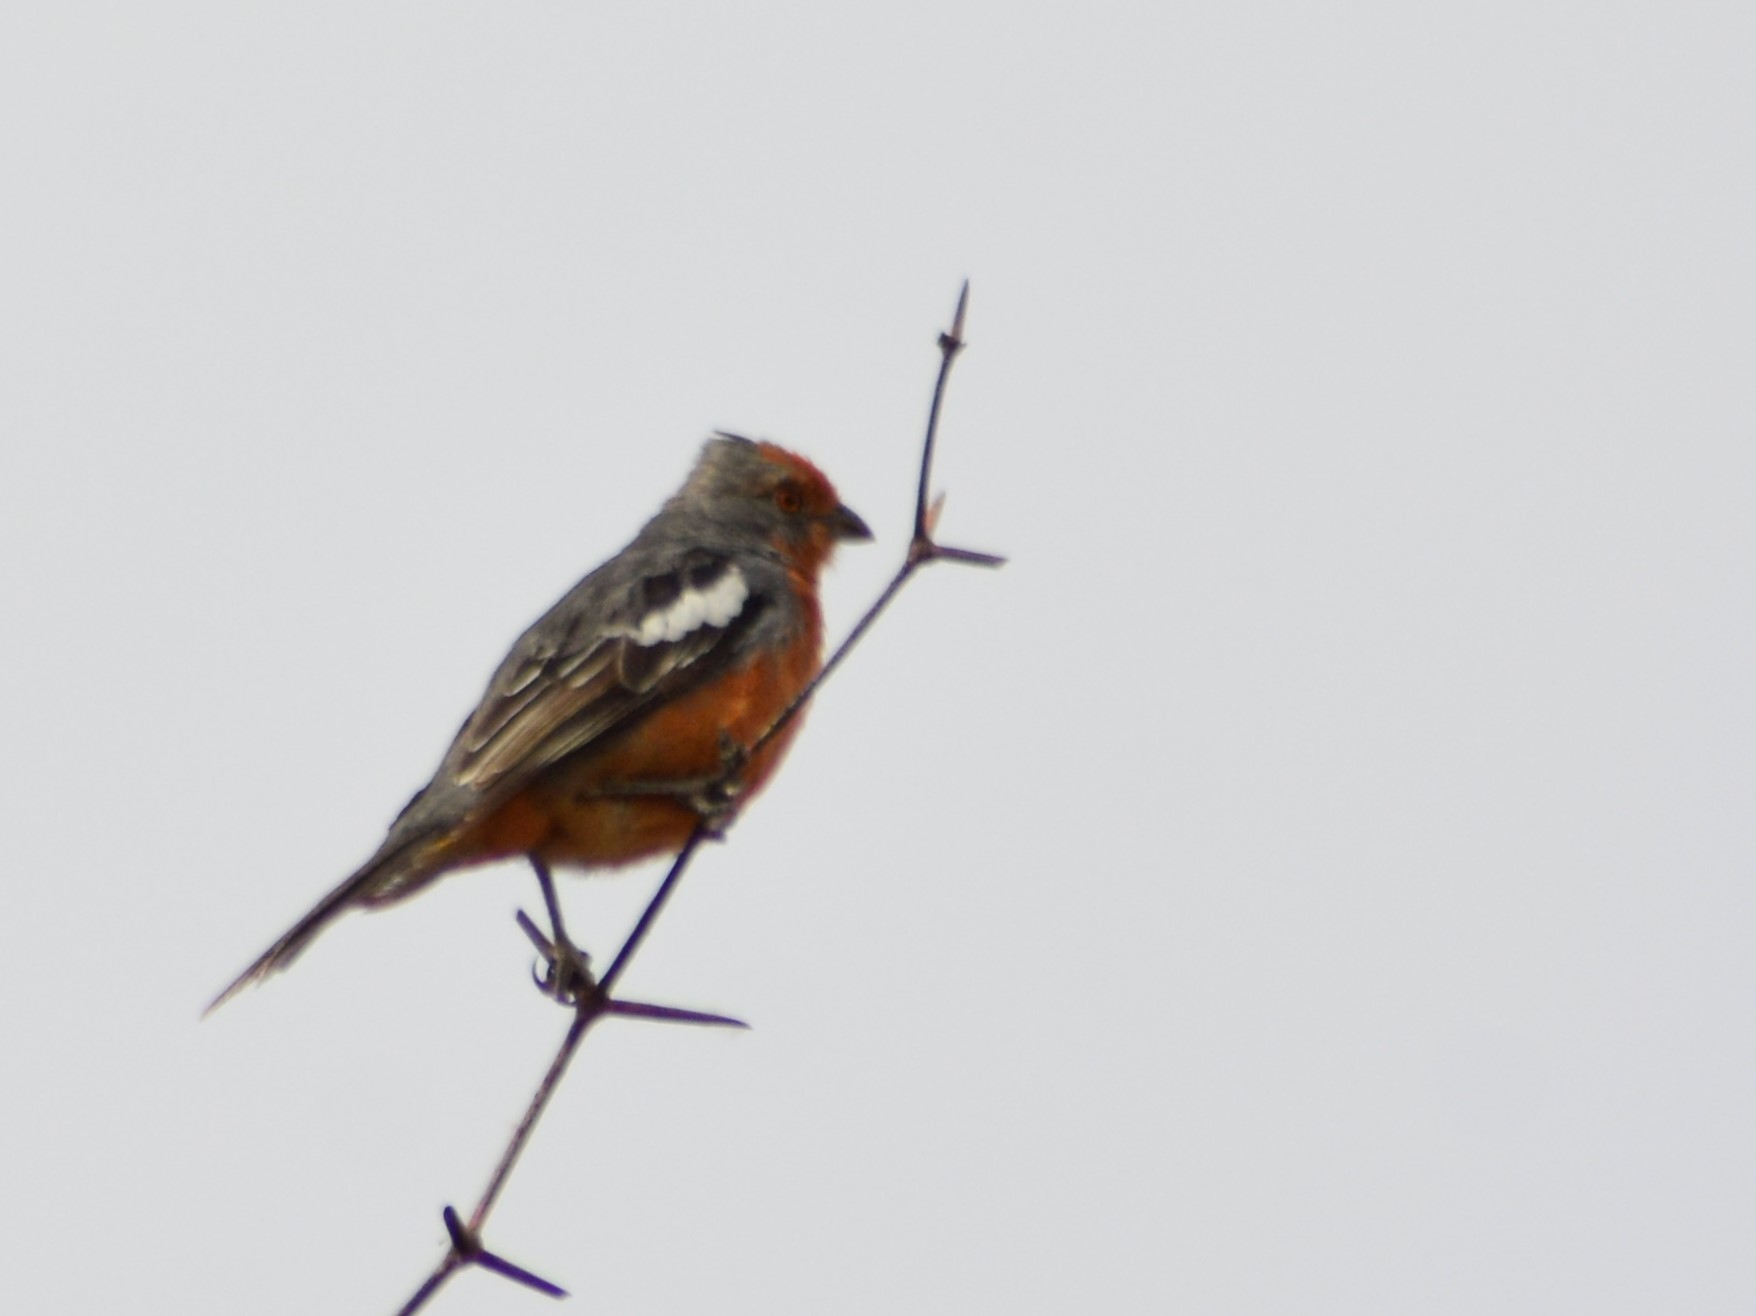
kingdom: Animalia
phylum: Chordata
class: Aves
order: Passeriformes
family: Cotingidae
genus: Phytotoma
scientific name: Phytotoma rutila
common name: White-tipped plantcutter
